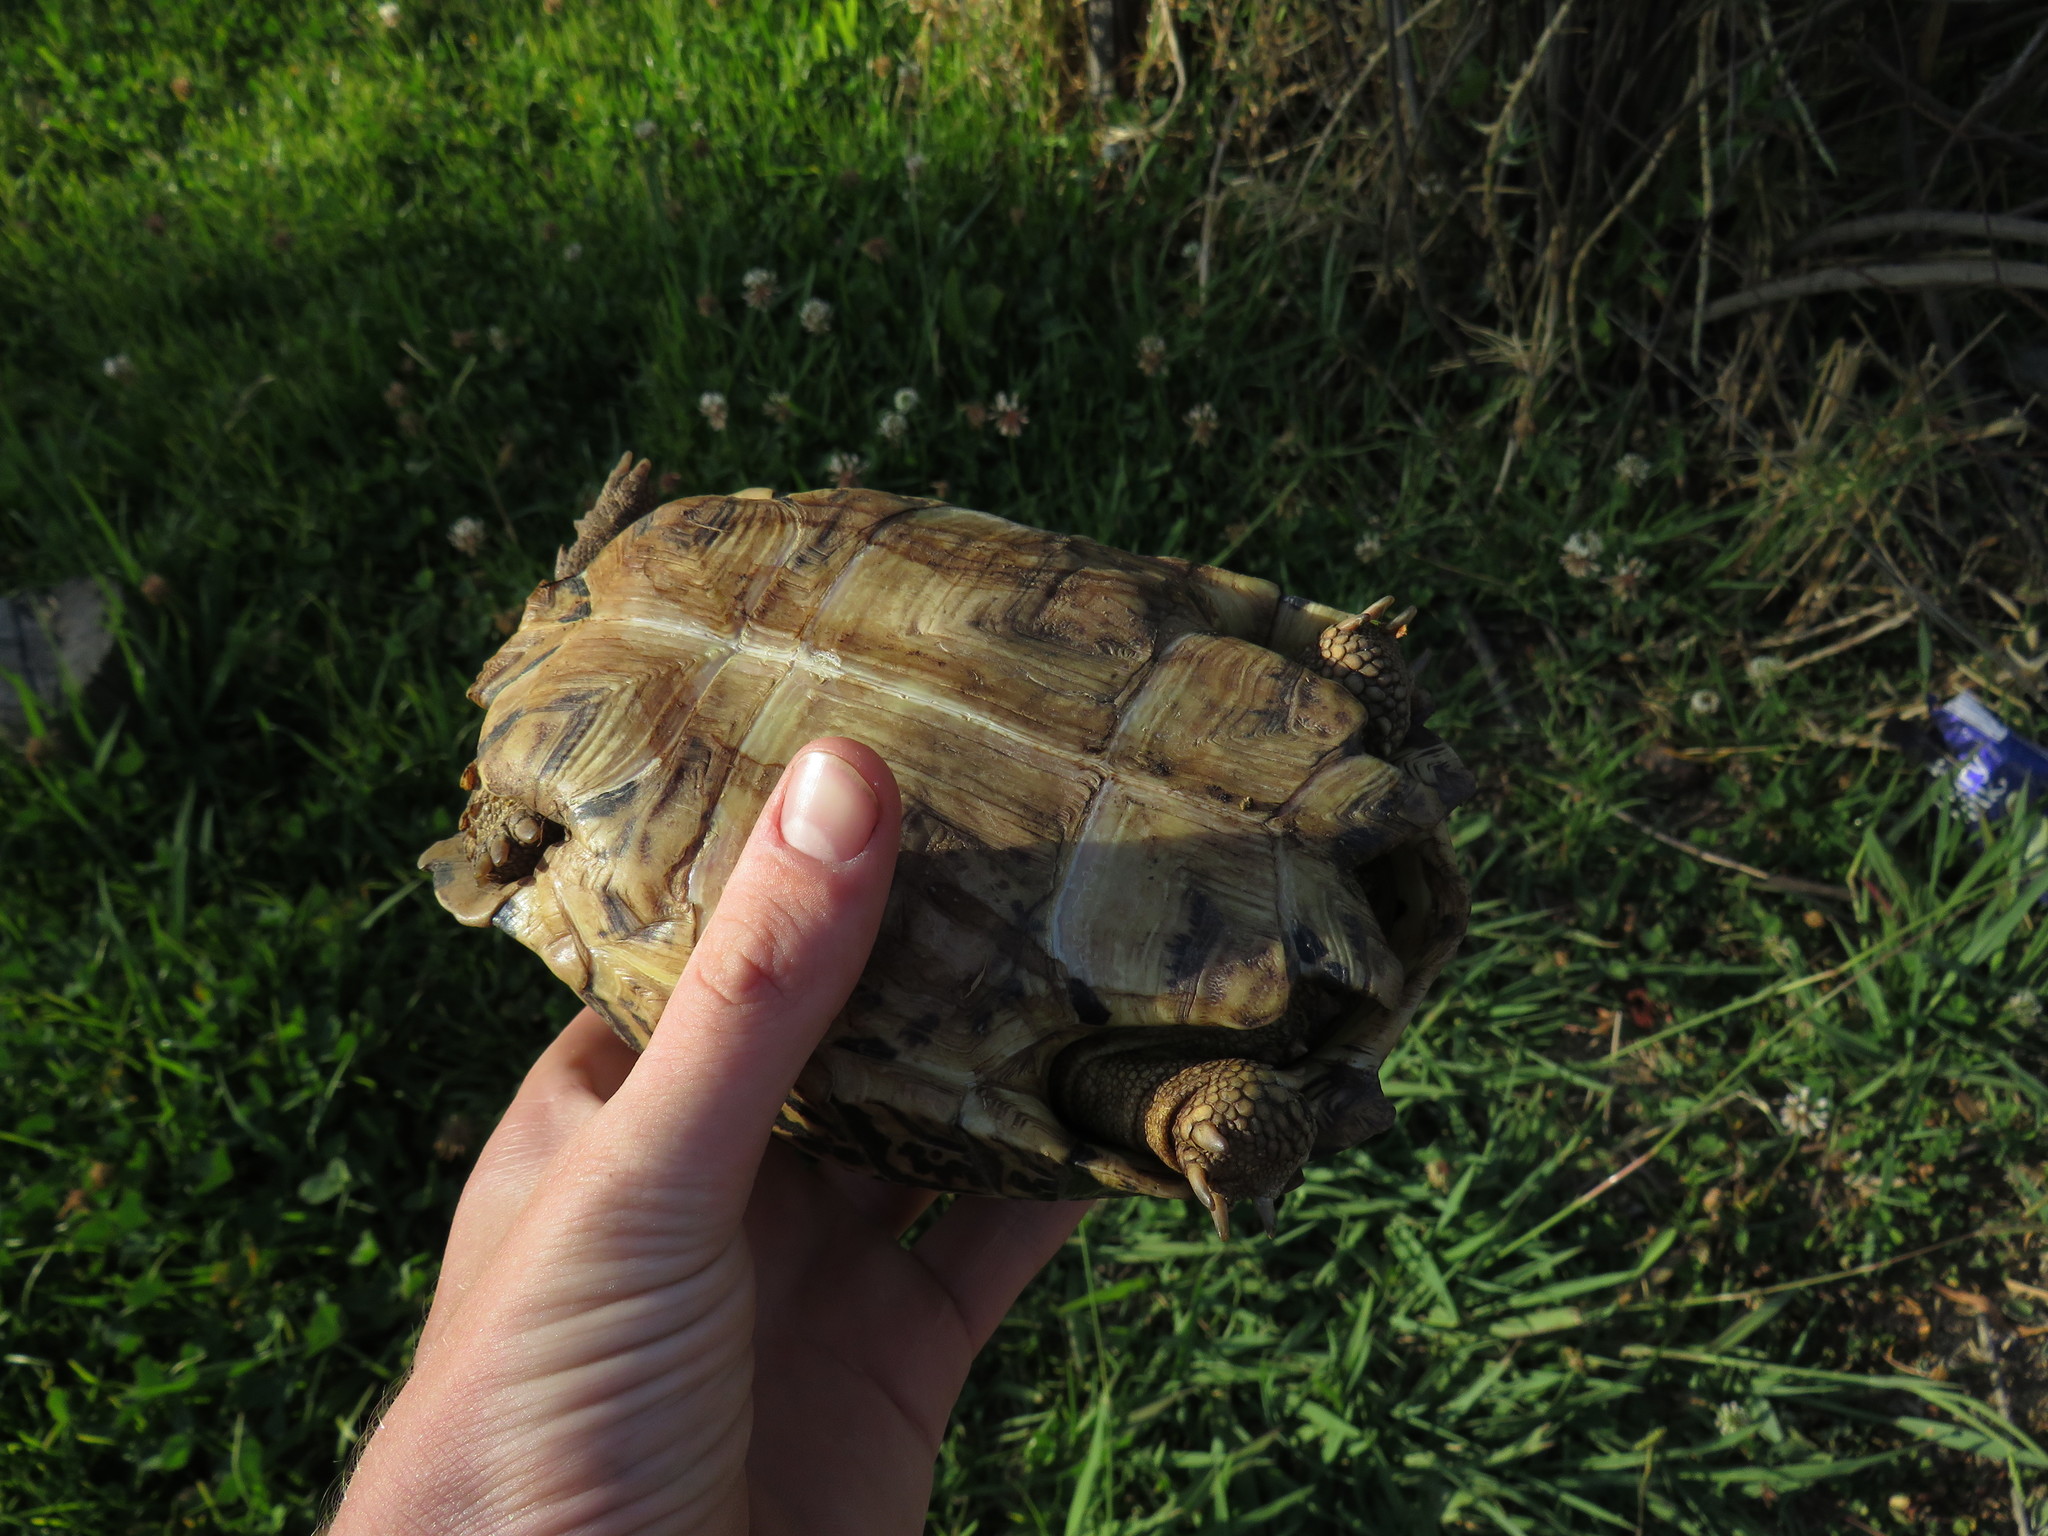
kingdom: Animalia
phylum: Chordata
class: Testudines
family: Testudinidae
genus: Stigmochelys
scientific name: Stigmochelys pardalis
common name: Leopard tortoise
